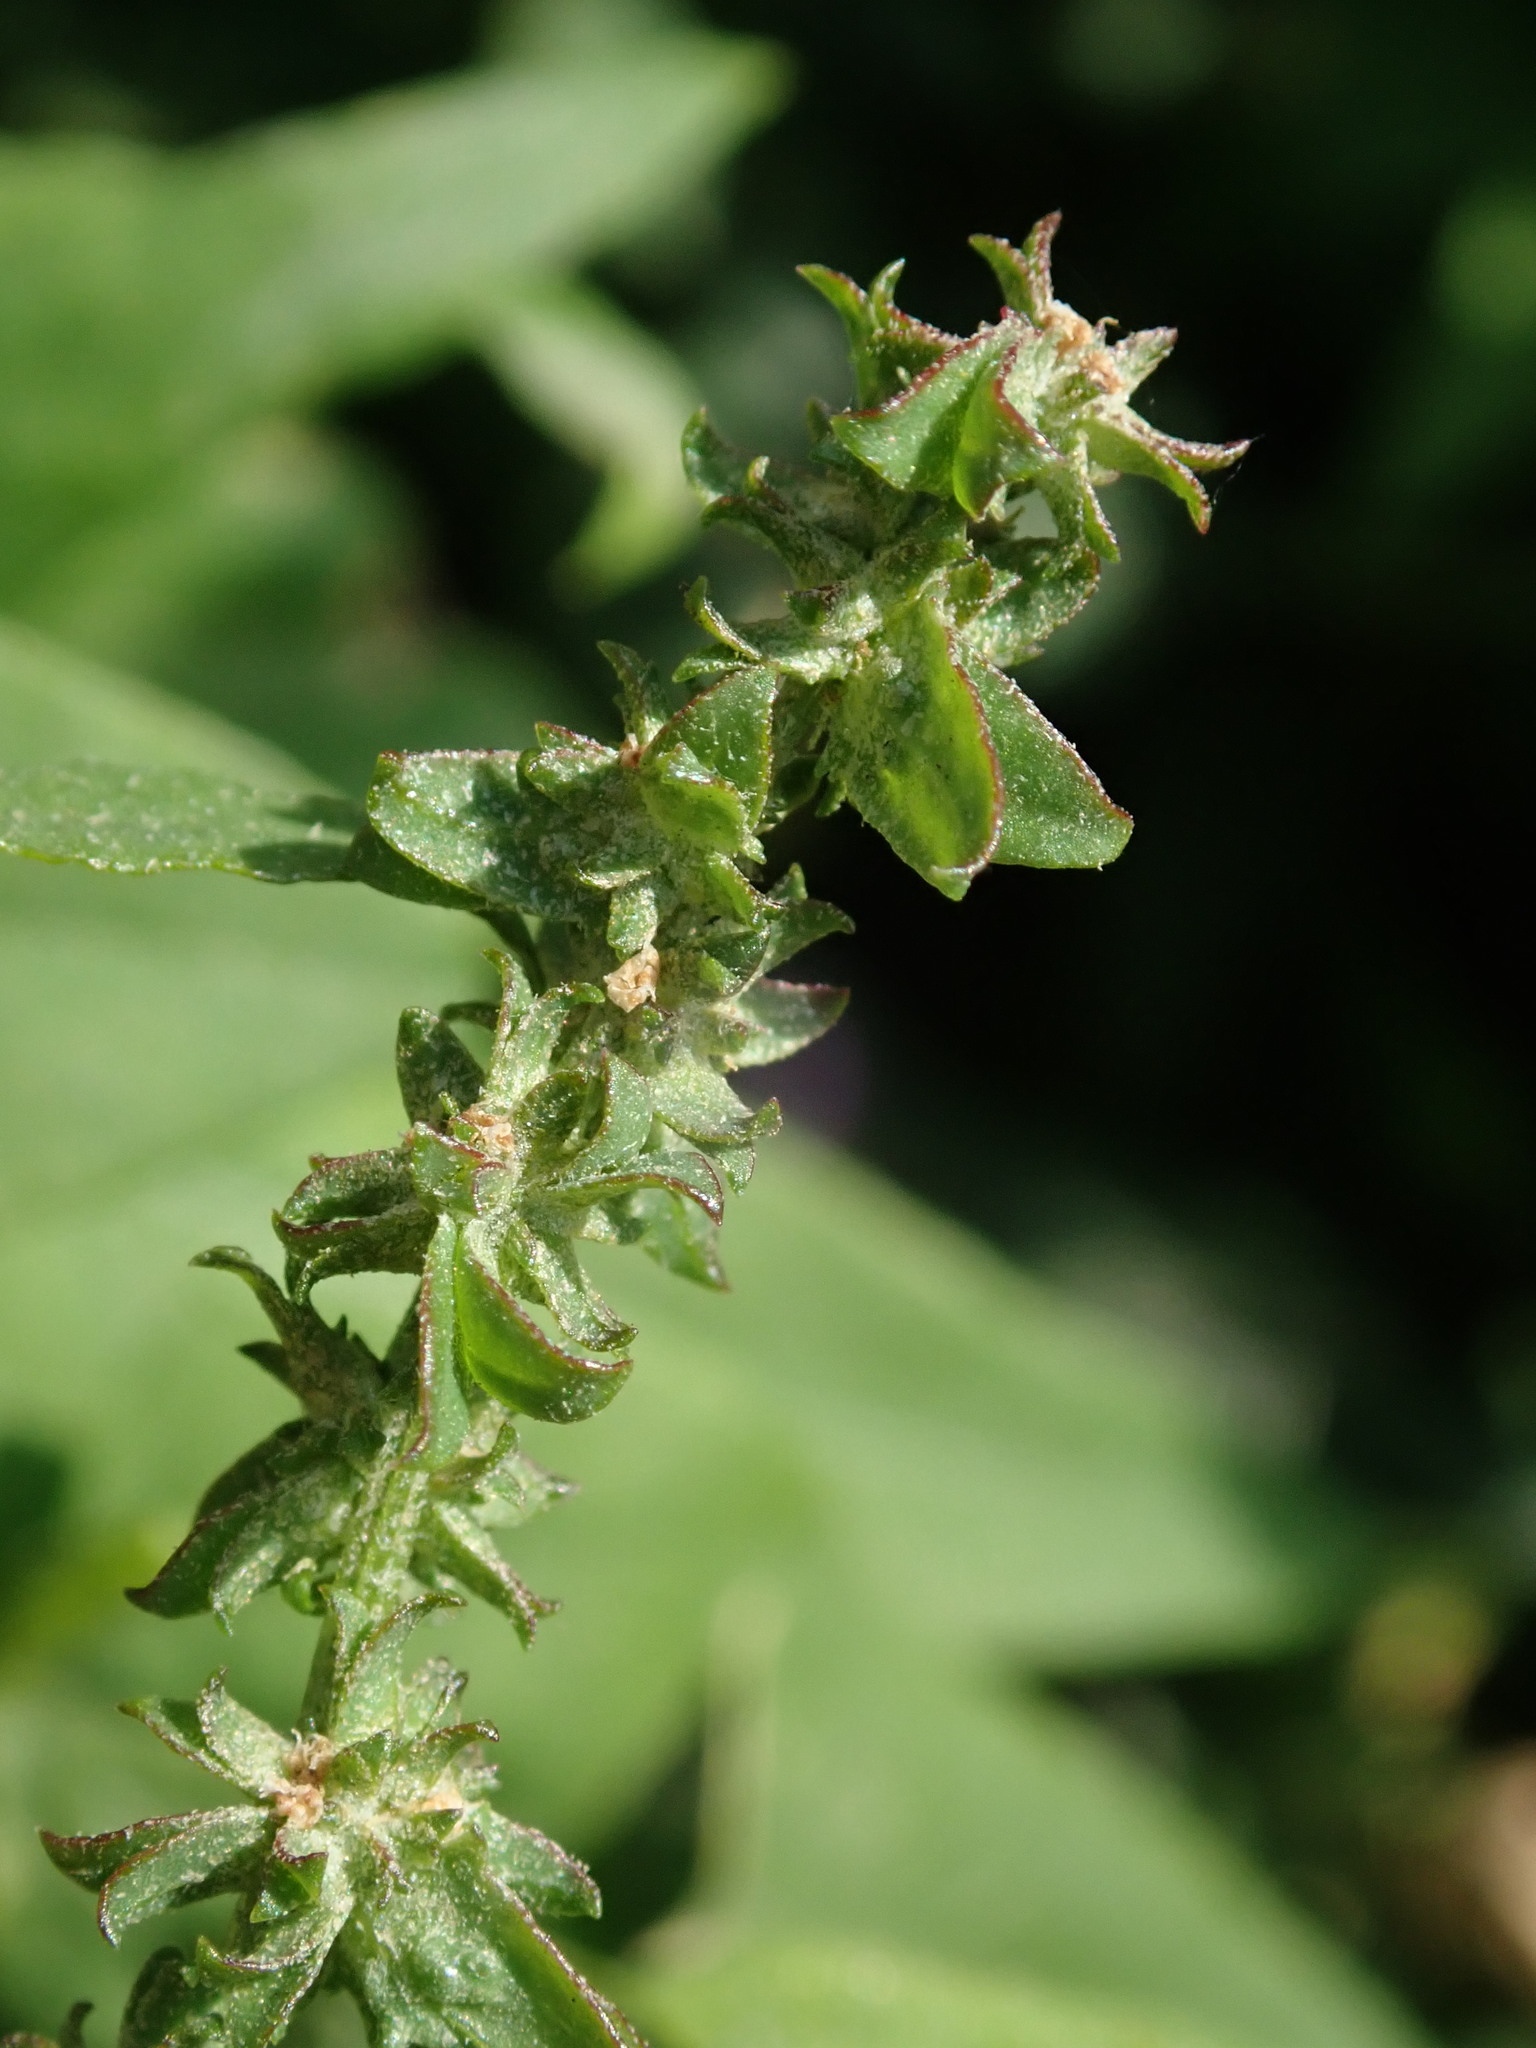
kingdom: Plantae
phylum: Tracheophyta
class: Magnoliopsida
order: Caryophyllales
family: Amaranthaceae
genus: Atriplex
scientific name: Atriplex prostrata
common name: Spear-leaved orache
